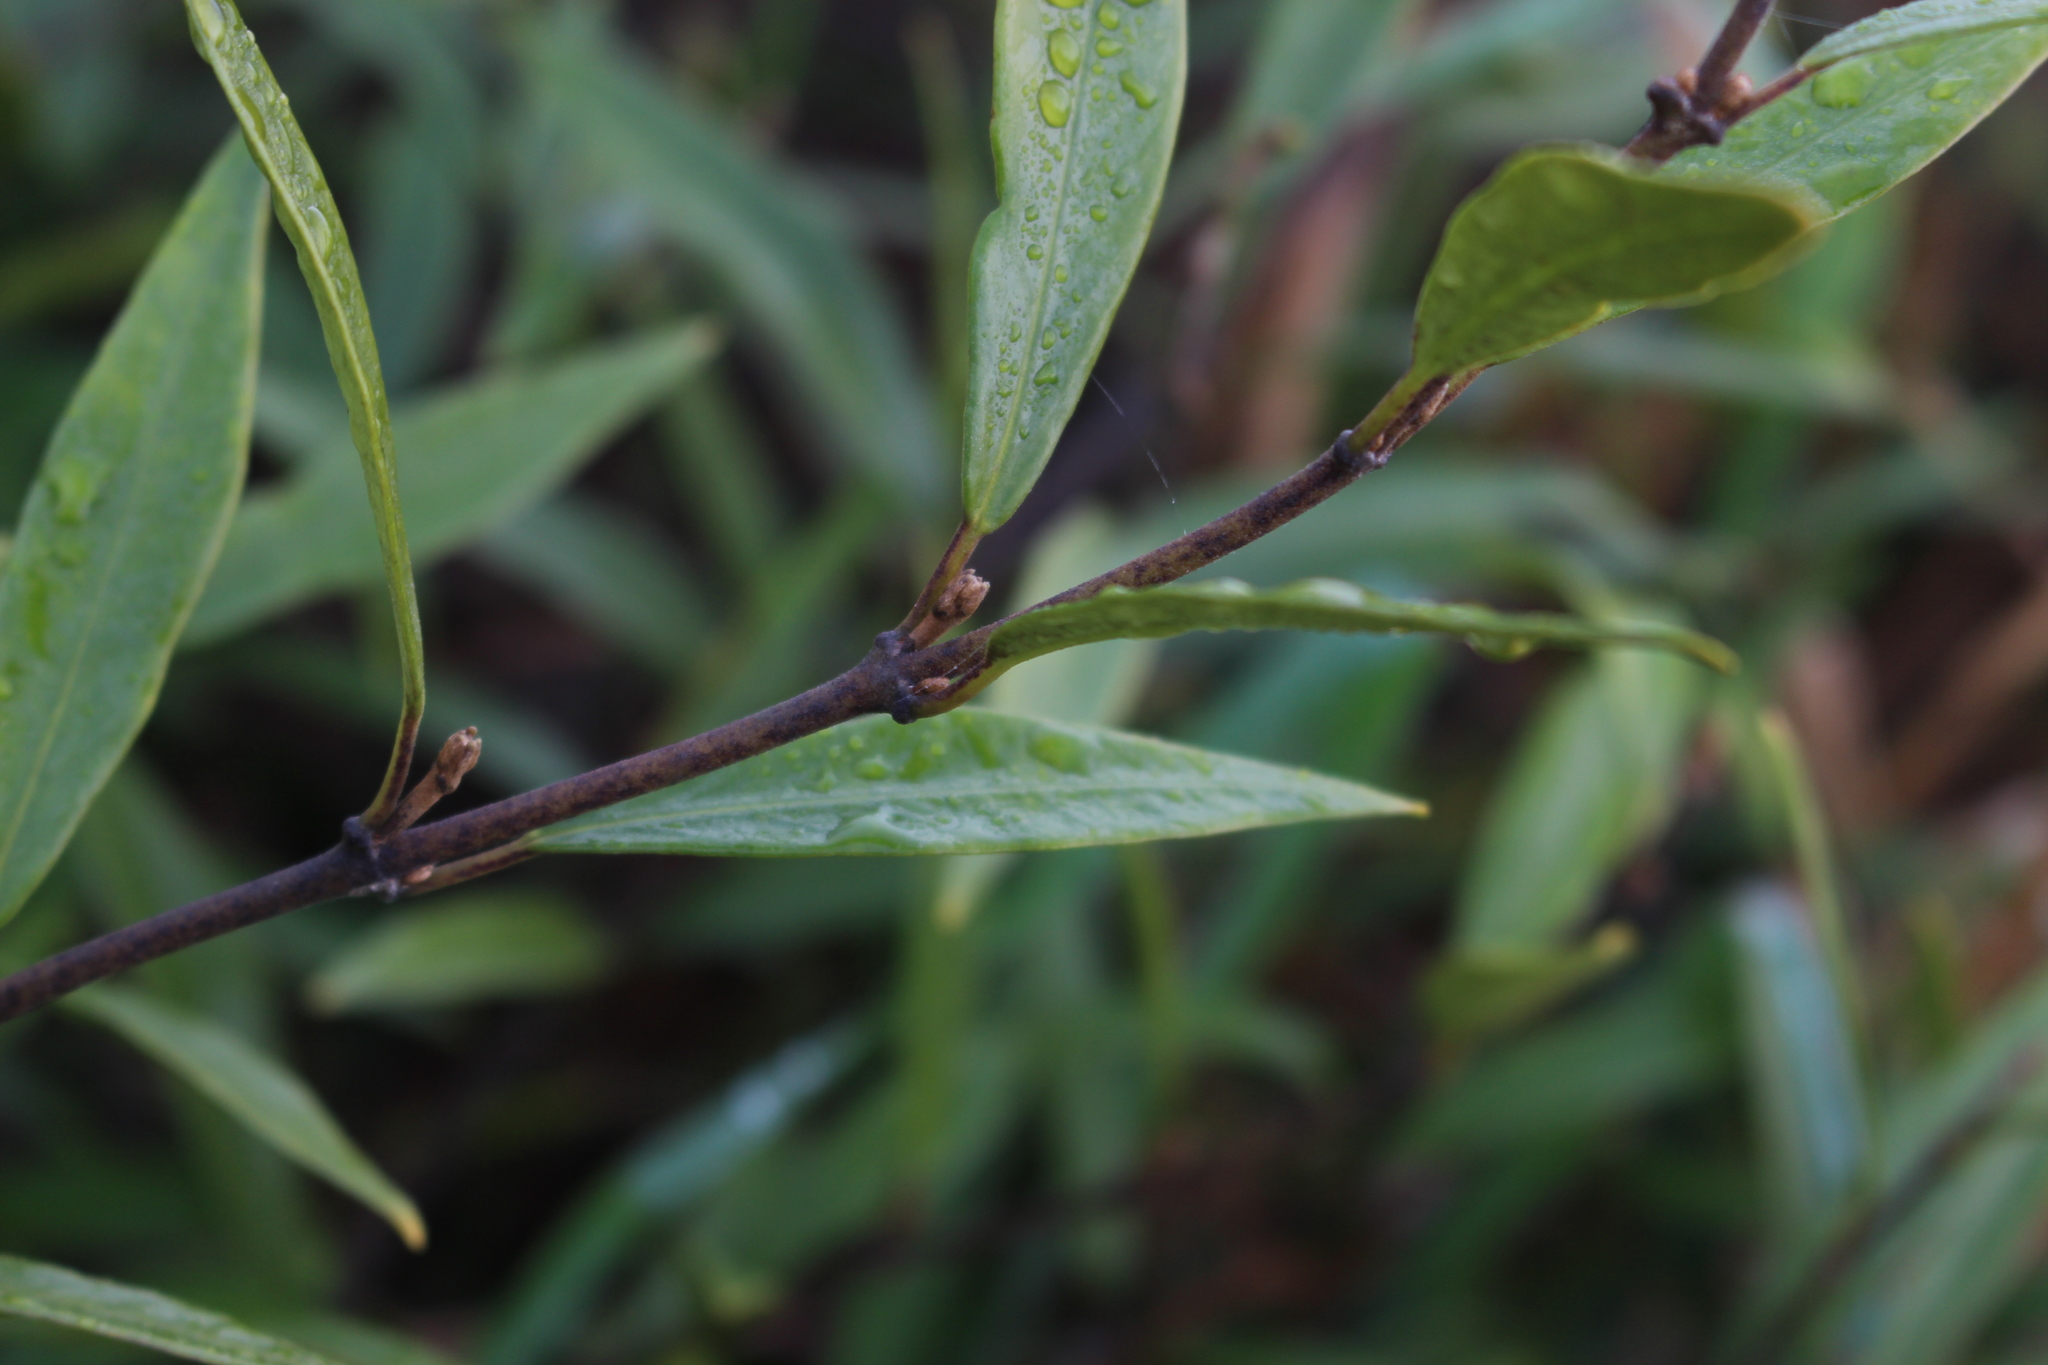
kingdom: Plantae
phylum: Tracheophyta
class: Magnoliopsida
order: Gentianales
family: Apocynaceae
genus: Parsonsia
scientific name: Parsonsia heterophylla
